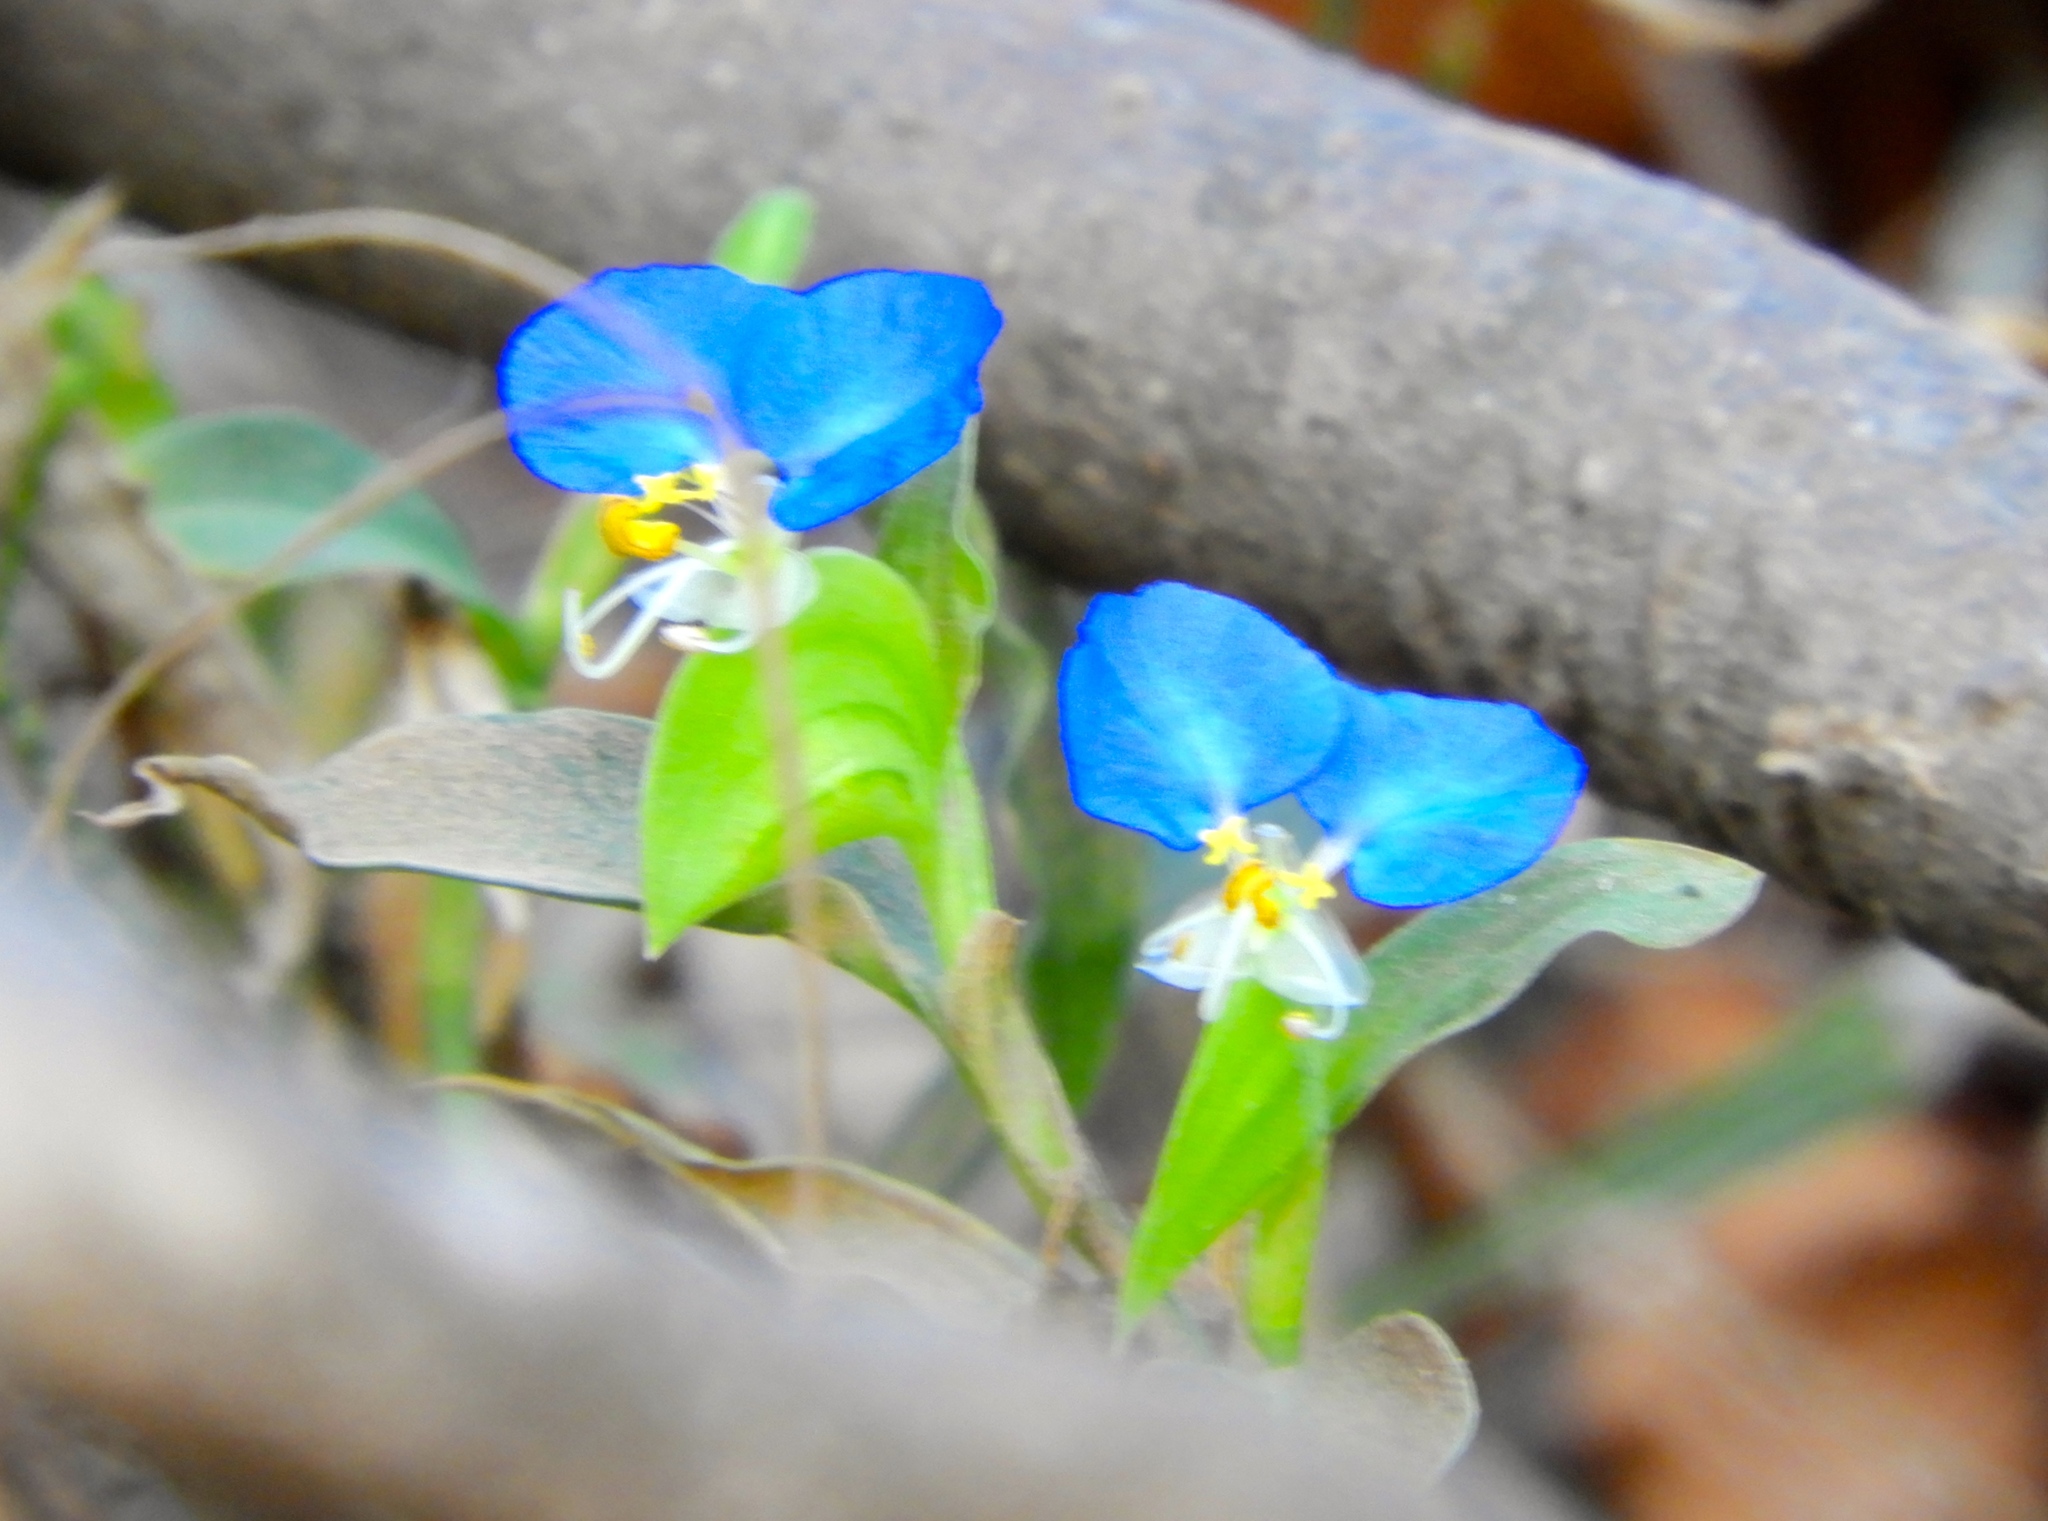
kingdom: Plantae
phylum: Tracheophyta
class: Liliopsida
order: Commelinales
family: Commelinaceae
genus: Commelina
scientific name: Commelina erecta
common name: Blousel blommetjie
